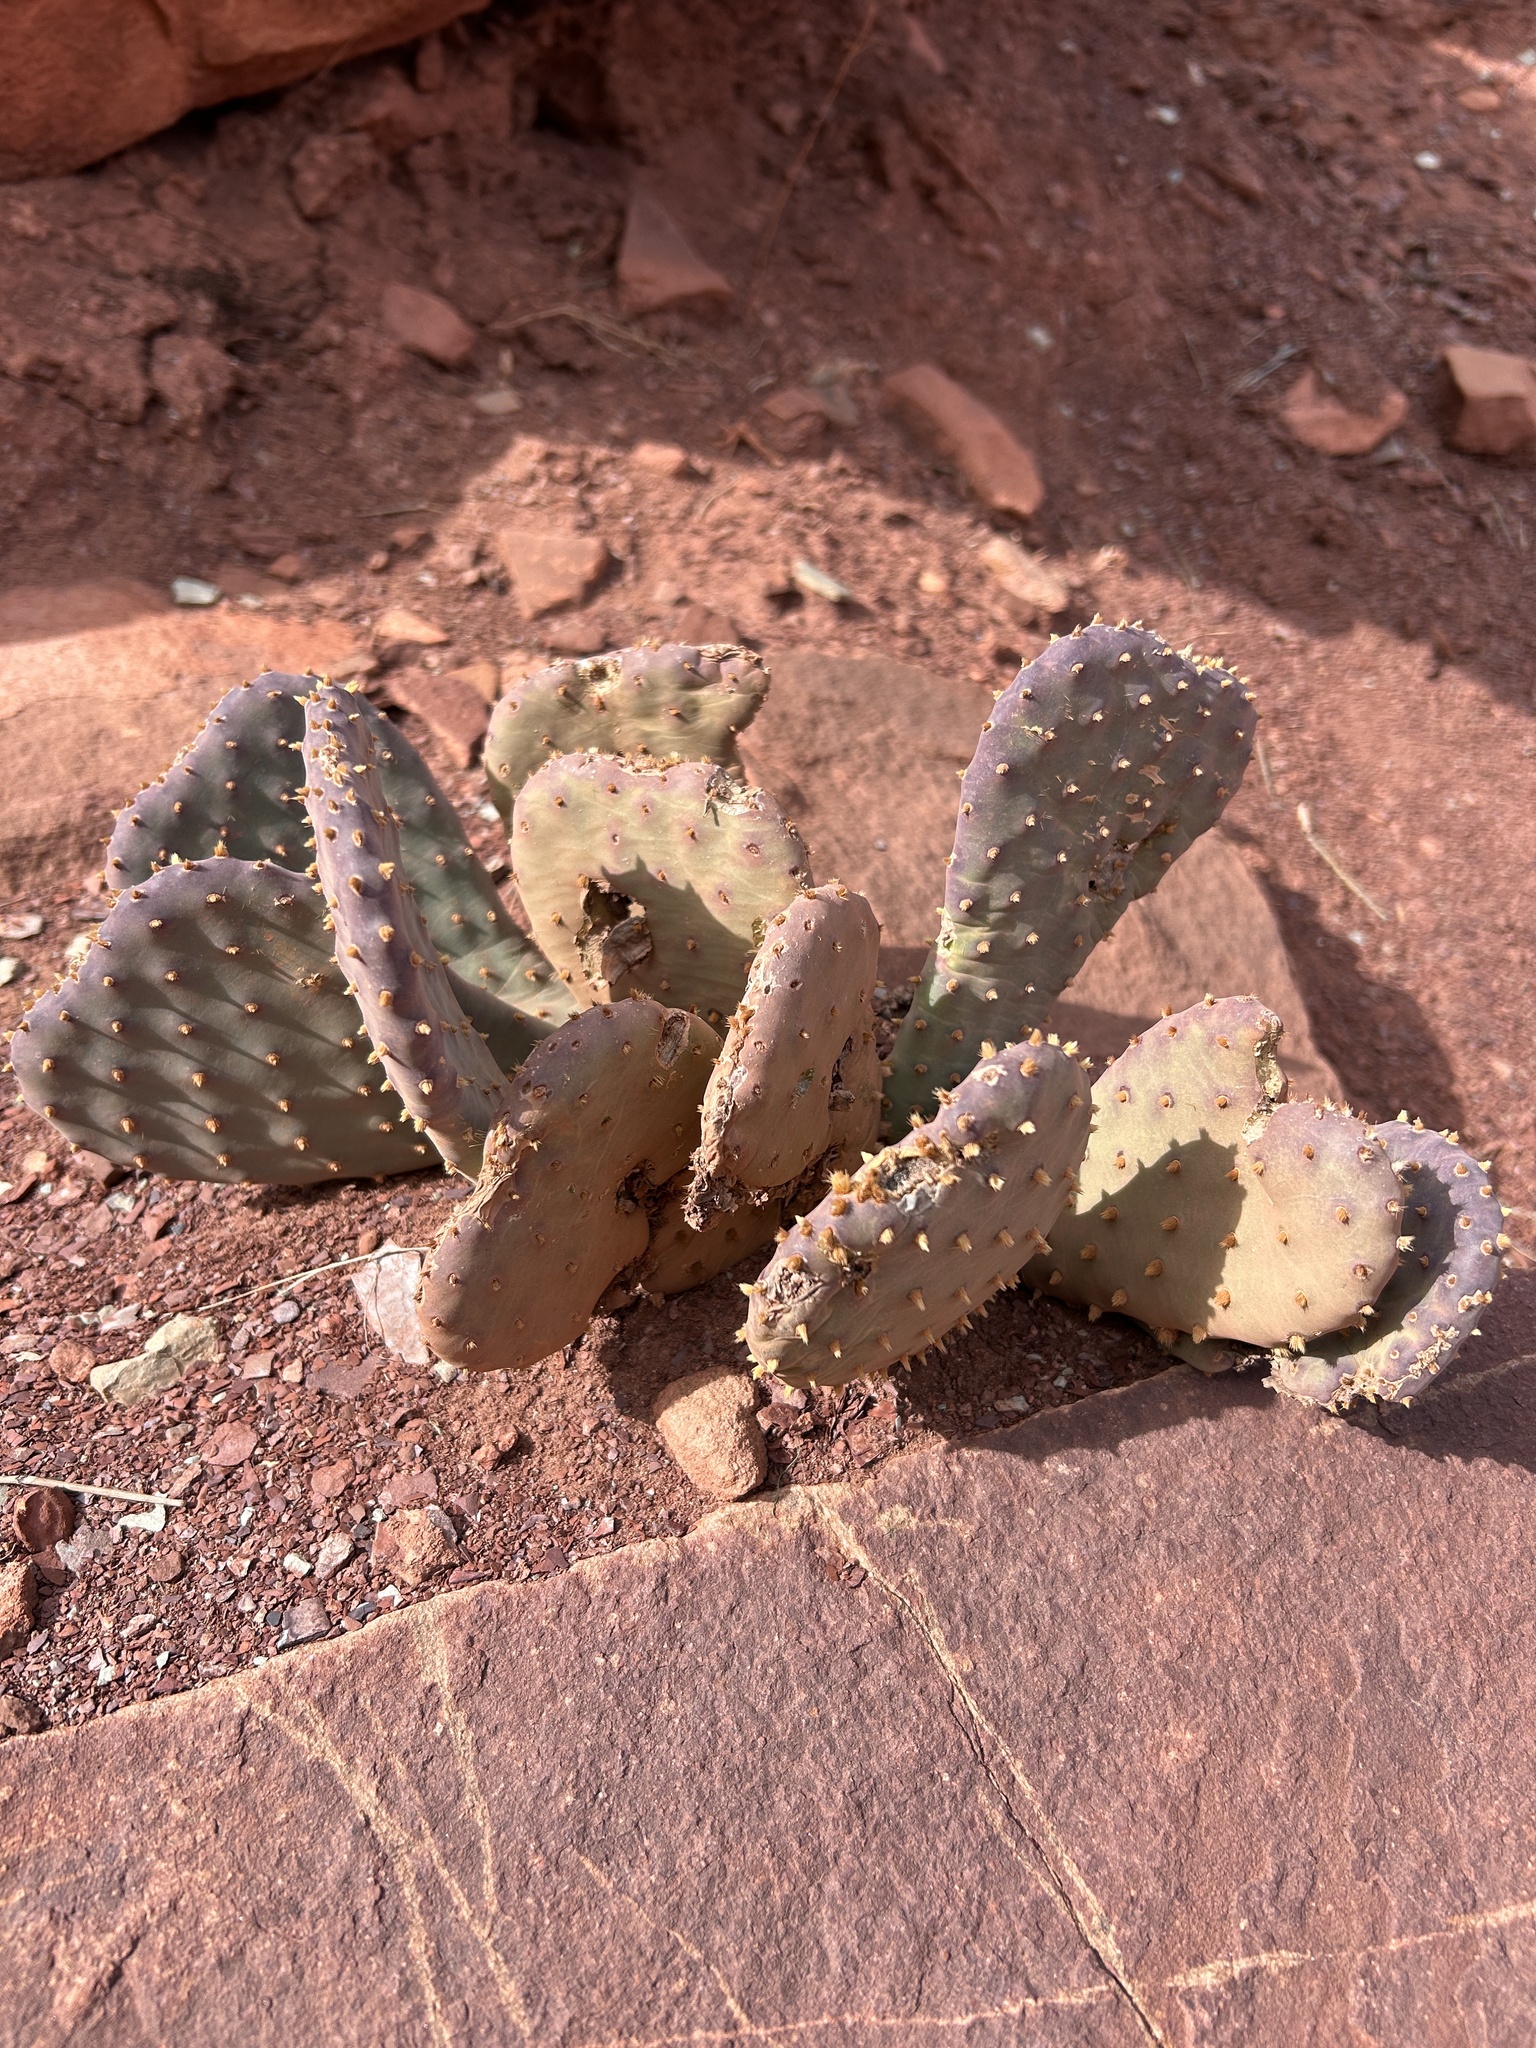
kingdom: Plantae
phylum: Tracheophyta
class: Magnoliopsida
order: Caryophyllales
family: Cactaceae
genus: Opuntia
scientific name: Opuntia basilaris
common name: Beavertail prickly-pear
